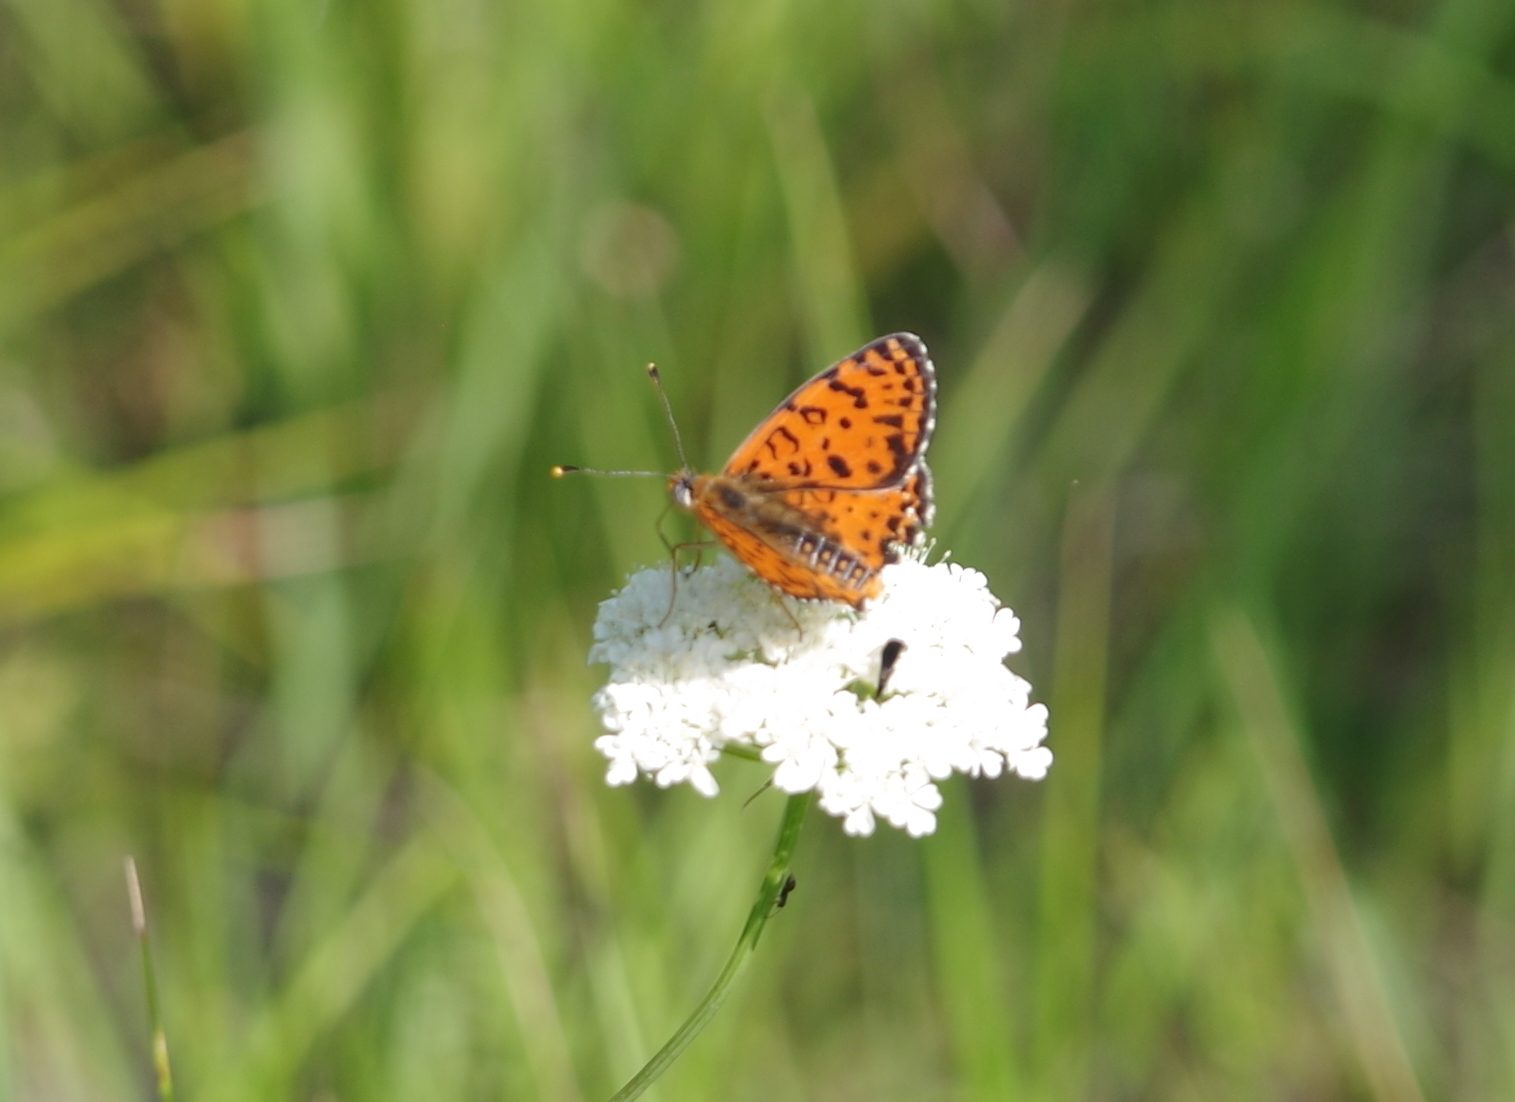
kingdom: Animalia
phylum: Arthropoda
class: Insecta
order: Lepidoptera
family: Nymphalidae
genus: Melitaea
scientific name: Melitaea didyma
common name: Spotted fritillary
